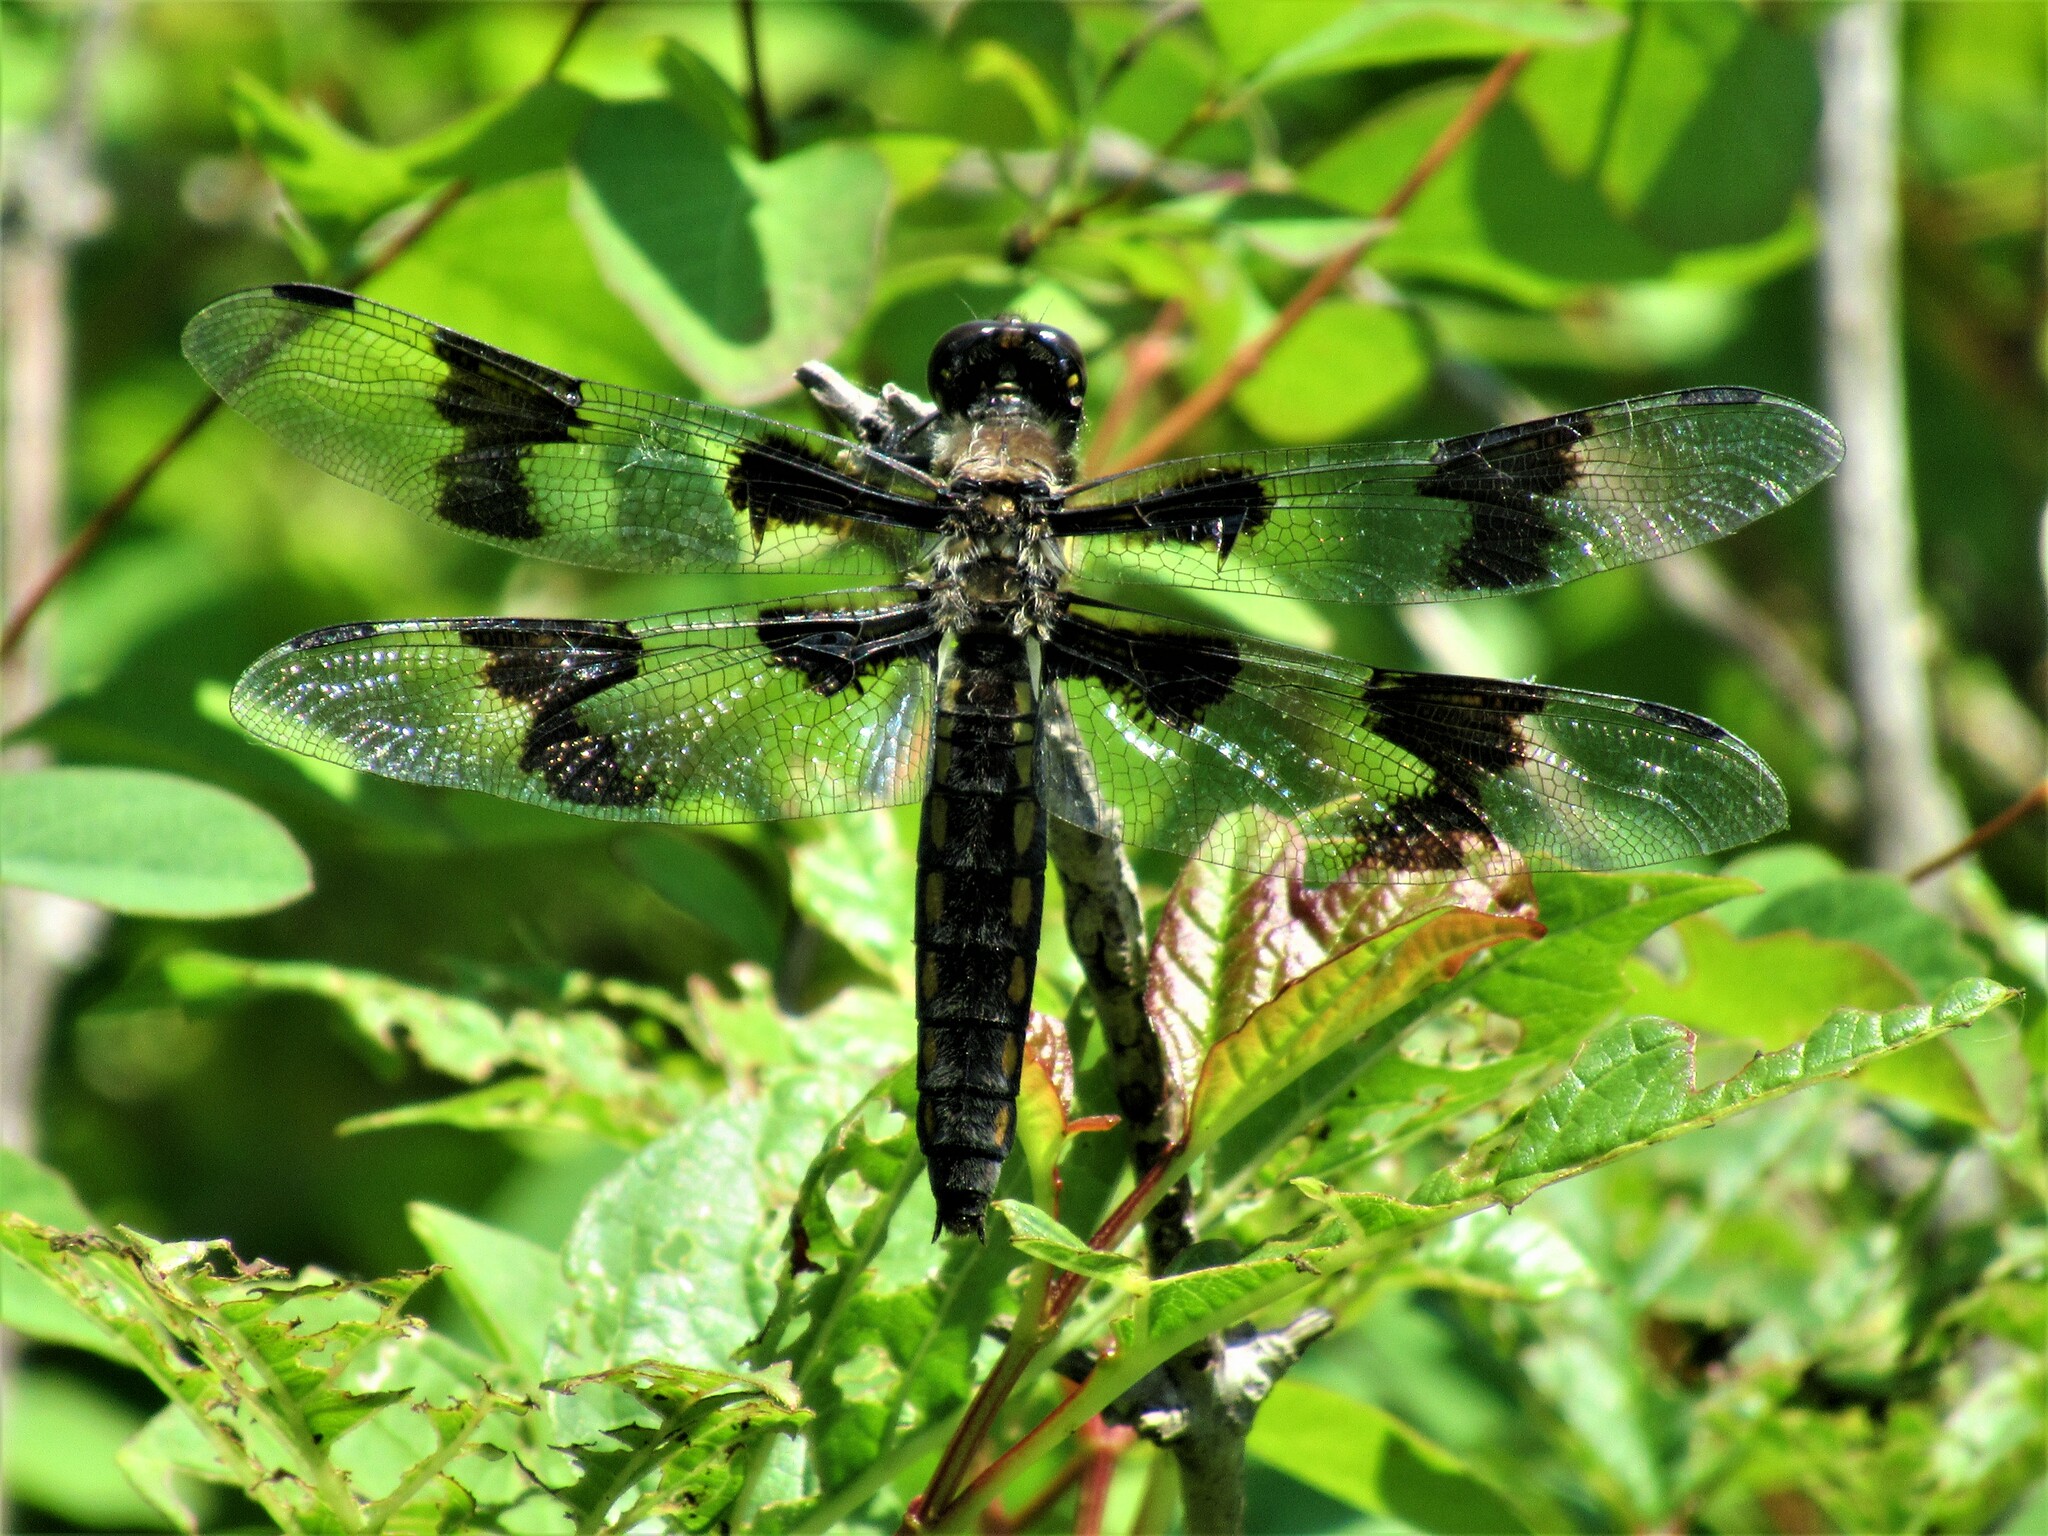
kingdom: Animalia
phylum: Arthropoda
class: Insecta
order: Odonata
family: Libellulidae
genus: Libellula
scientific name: Libellula forensis
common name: Eight-spotted skimmer
